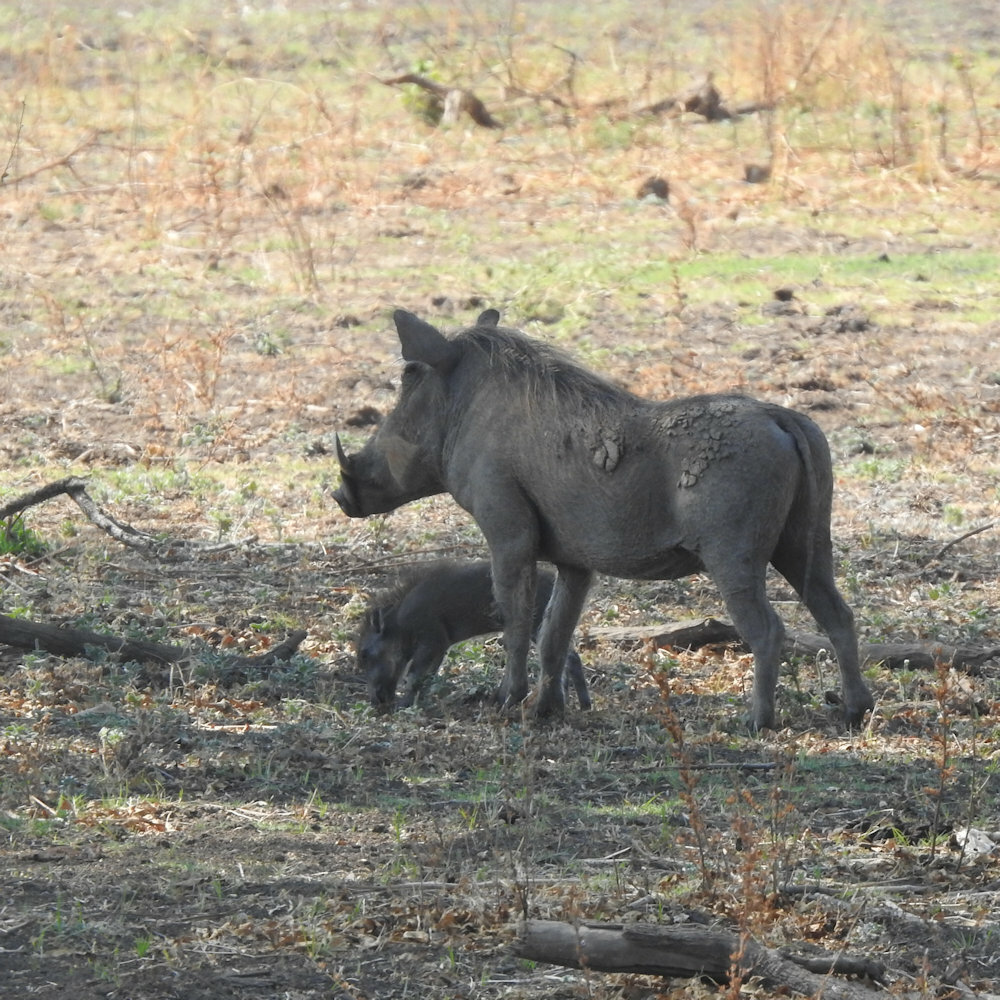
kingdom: Animalia
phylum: Chordata
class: Mammalia
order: Artiodactyla
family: Suidae
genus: Phacochoerus
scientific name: Phacochoerus africanus
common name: Common warthog
